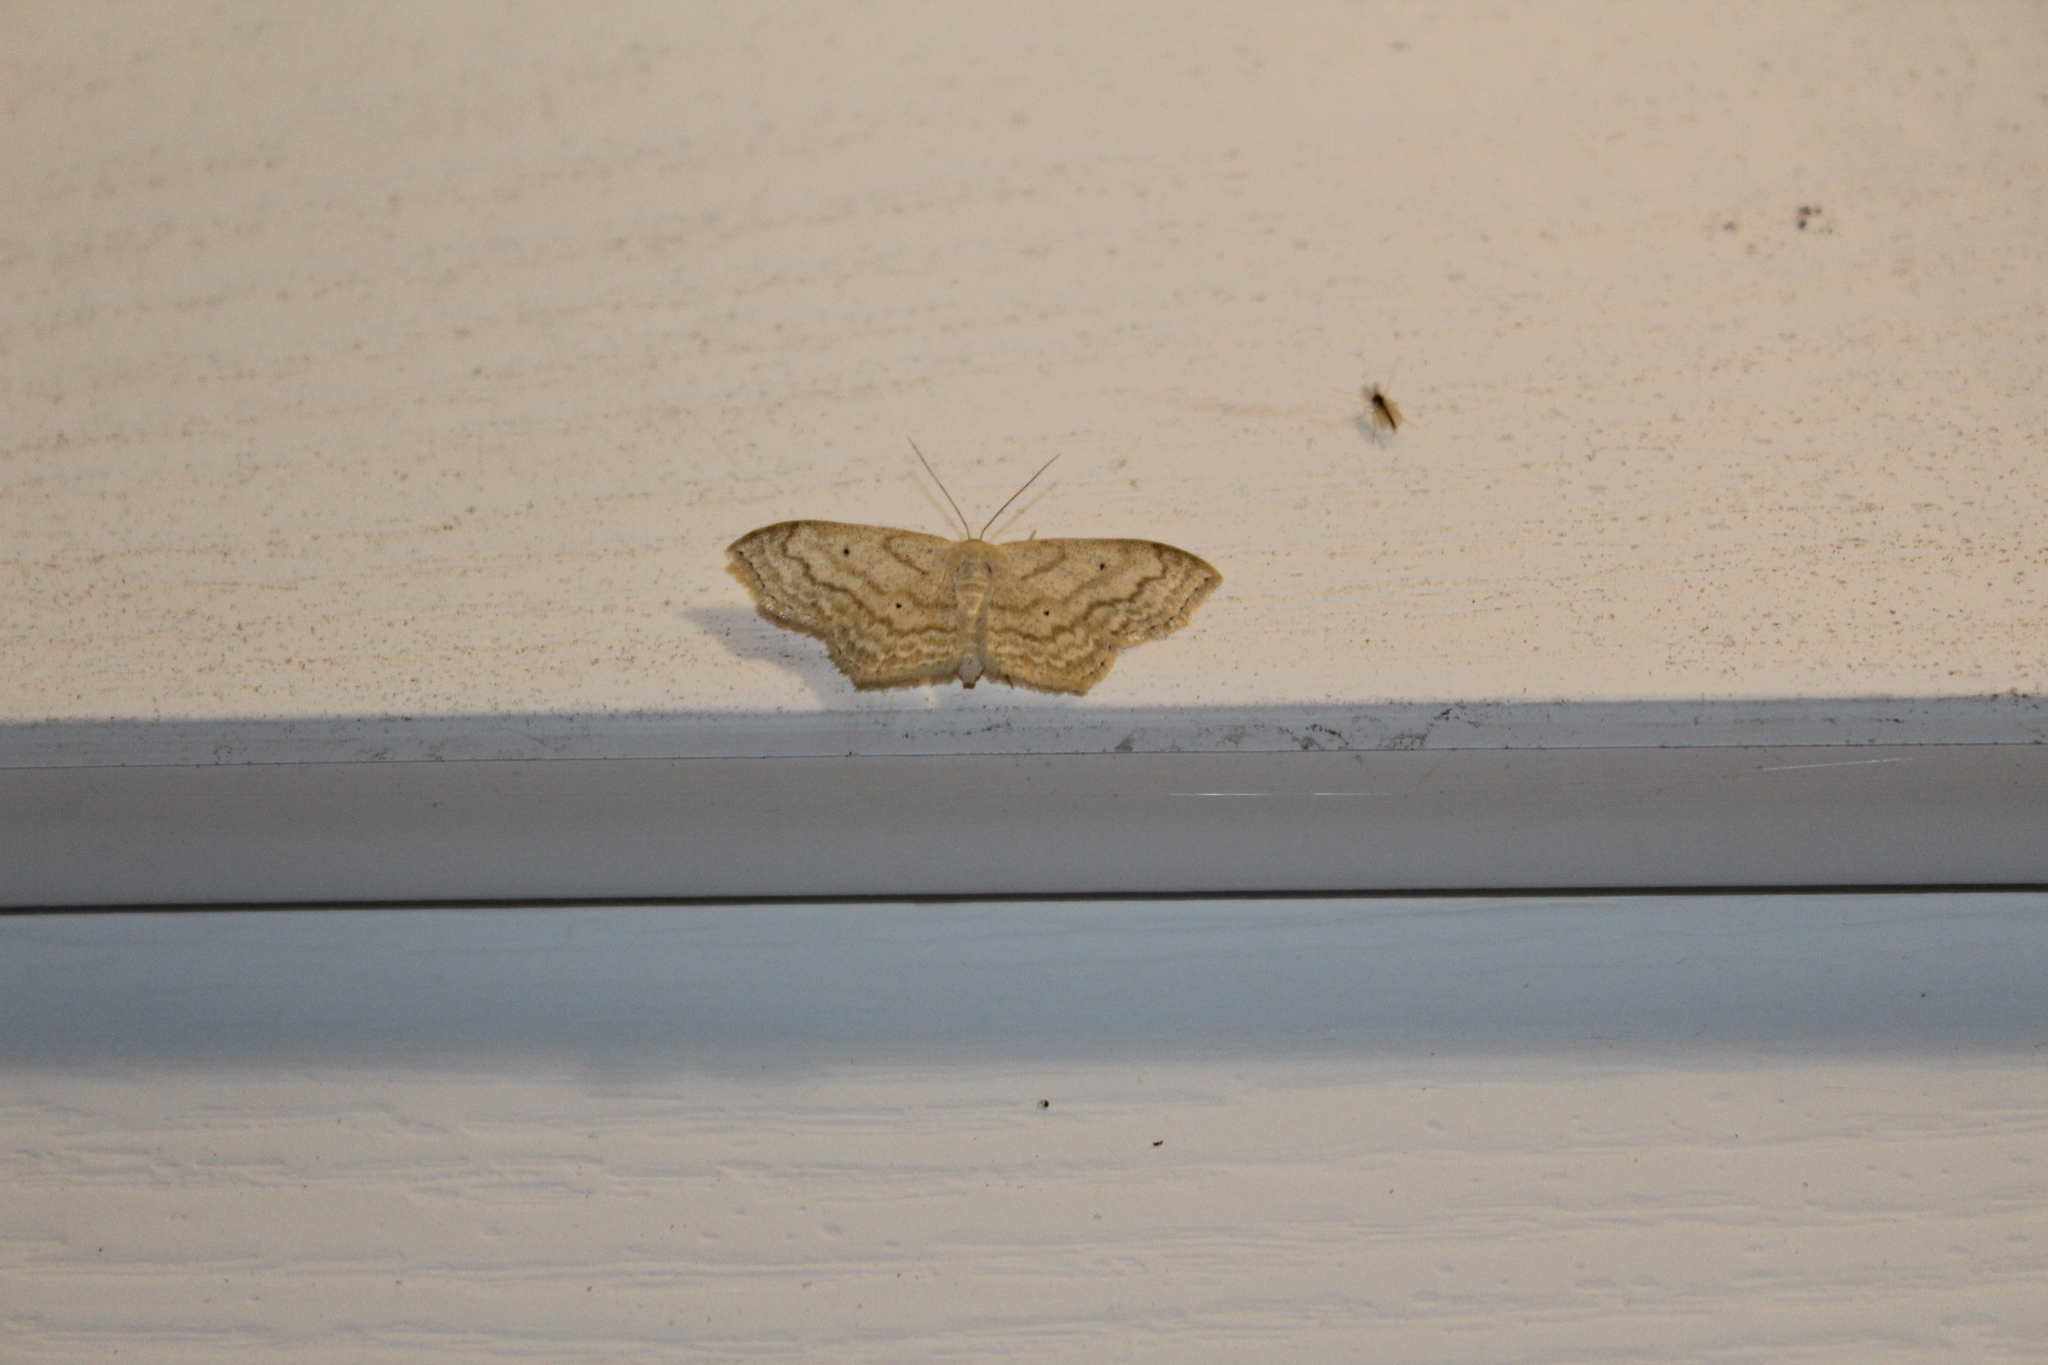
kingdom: Animalia
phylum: Arthropoda
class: Insecta
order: Lepidoptera
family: Geometridae
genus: Scopula
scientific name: Scopula limboundata
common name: Large lace border
